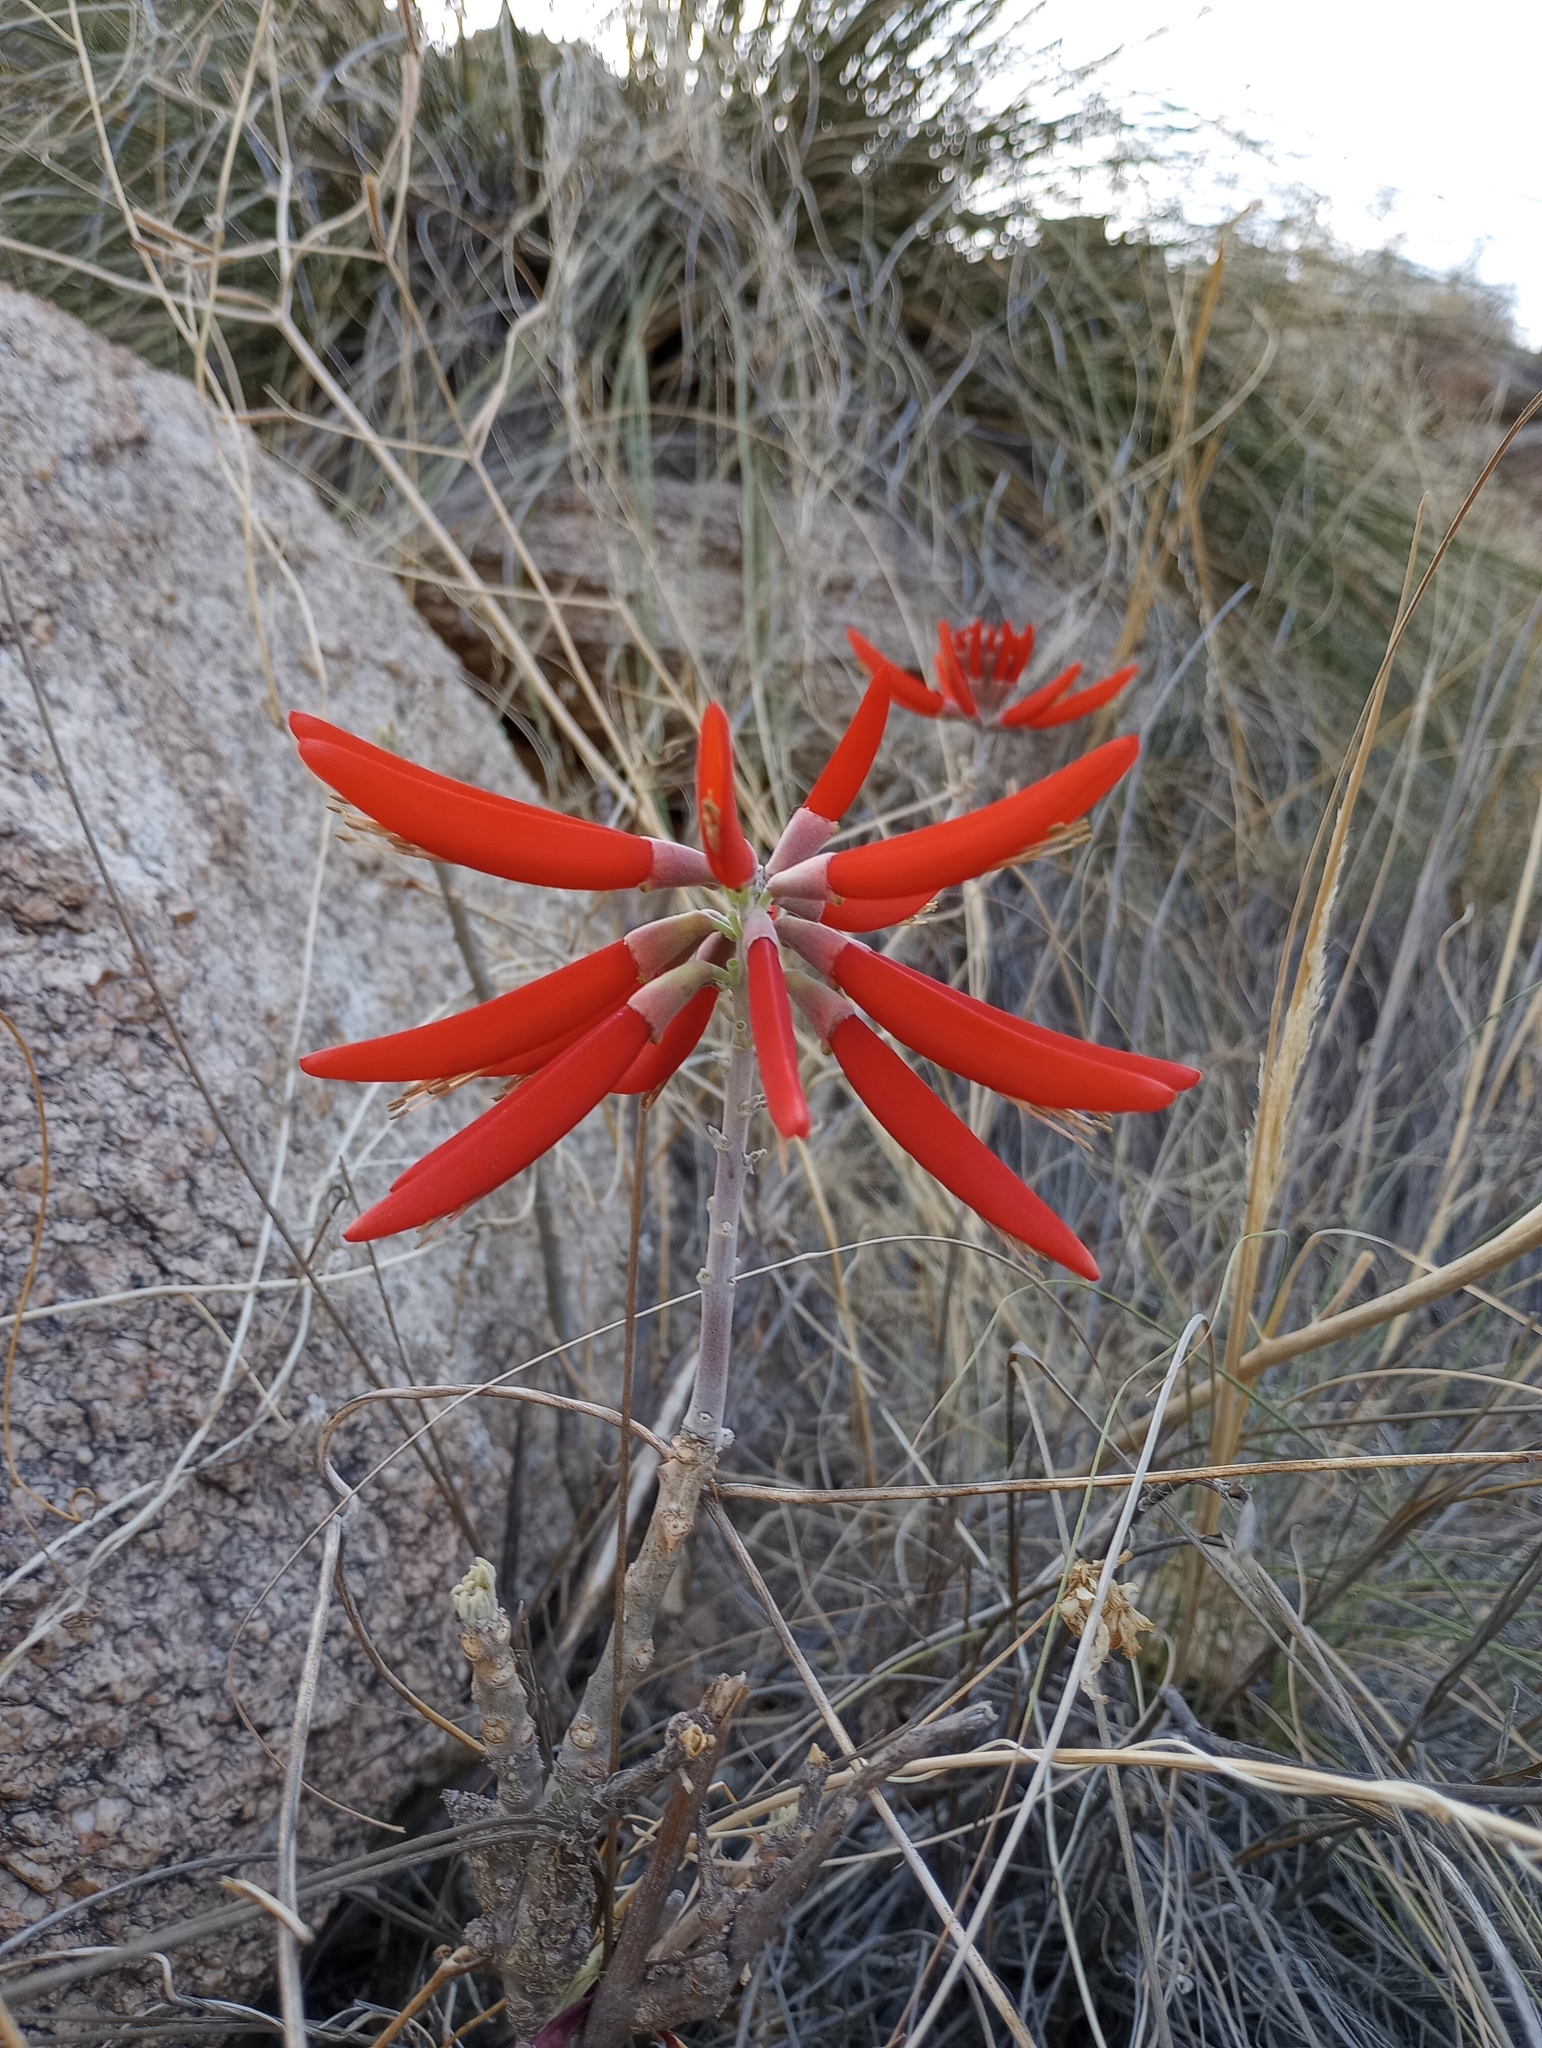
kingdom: Plantae
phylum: Tracheophyta
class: Magnoliopsida
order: Fabales
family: Fabaceae
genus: Erythrina
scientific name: Erythrina flabelliformis
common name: Chilicote
